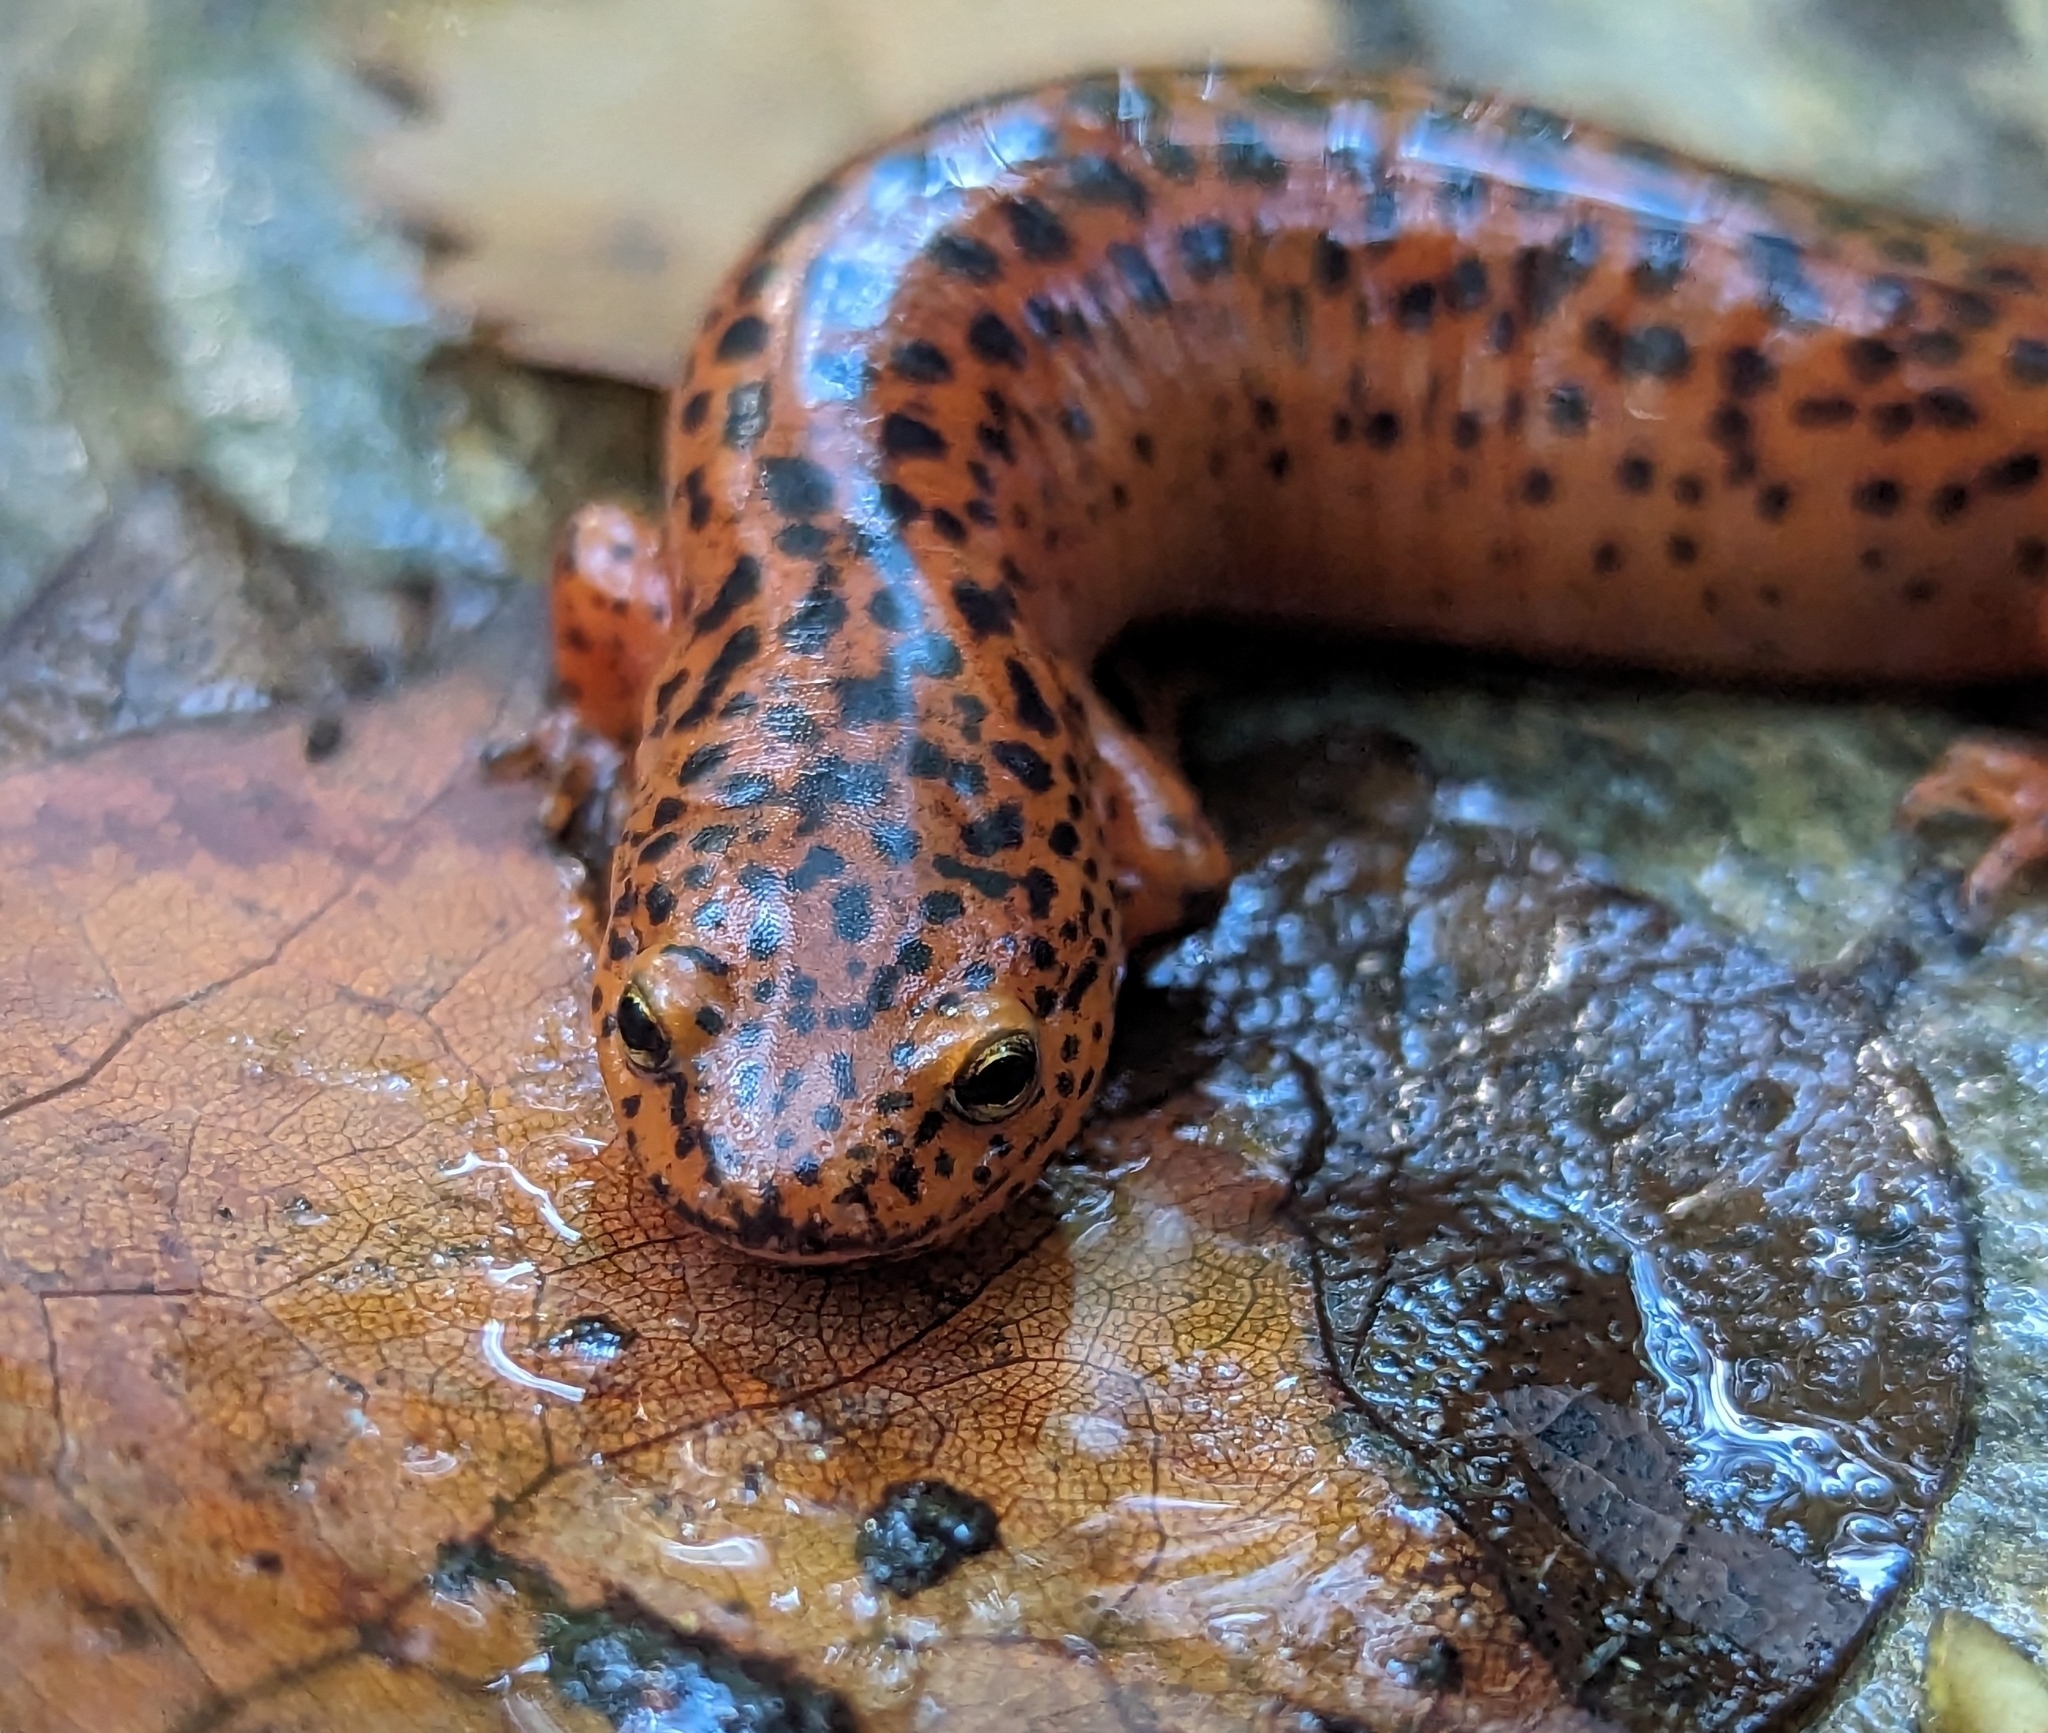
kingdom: Animalia
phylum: Chordata
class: Amphibia
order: Caudata
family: Plethodontidae
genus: Pseudotriton
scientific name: Pseudotriton ruber
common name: Red salamander
